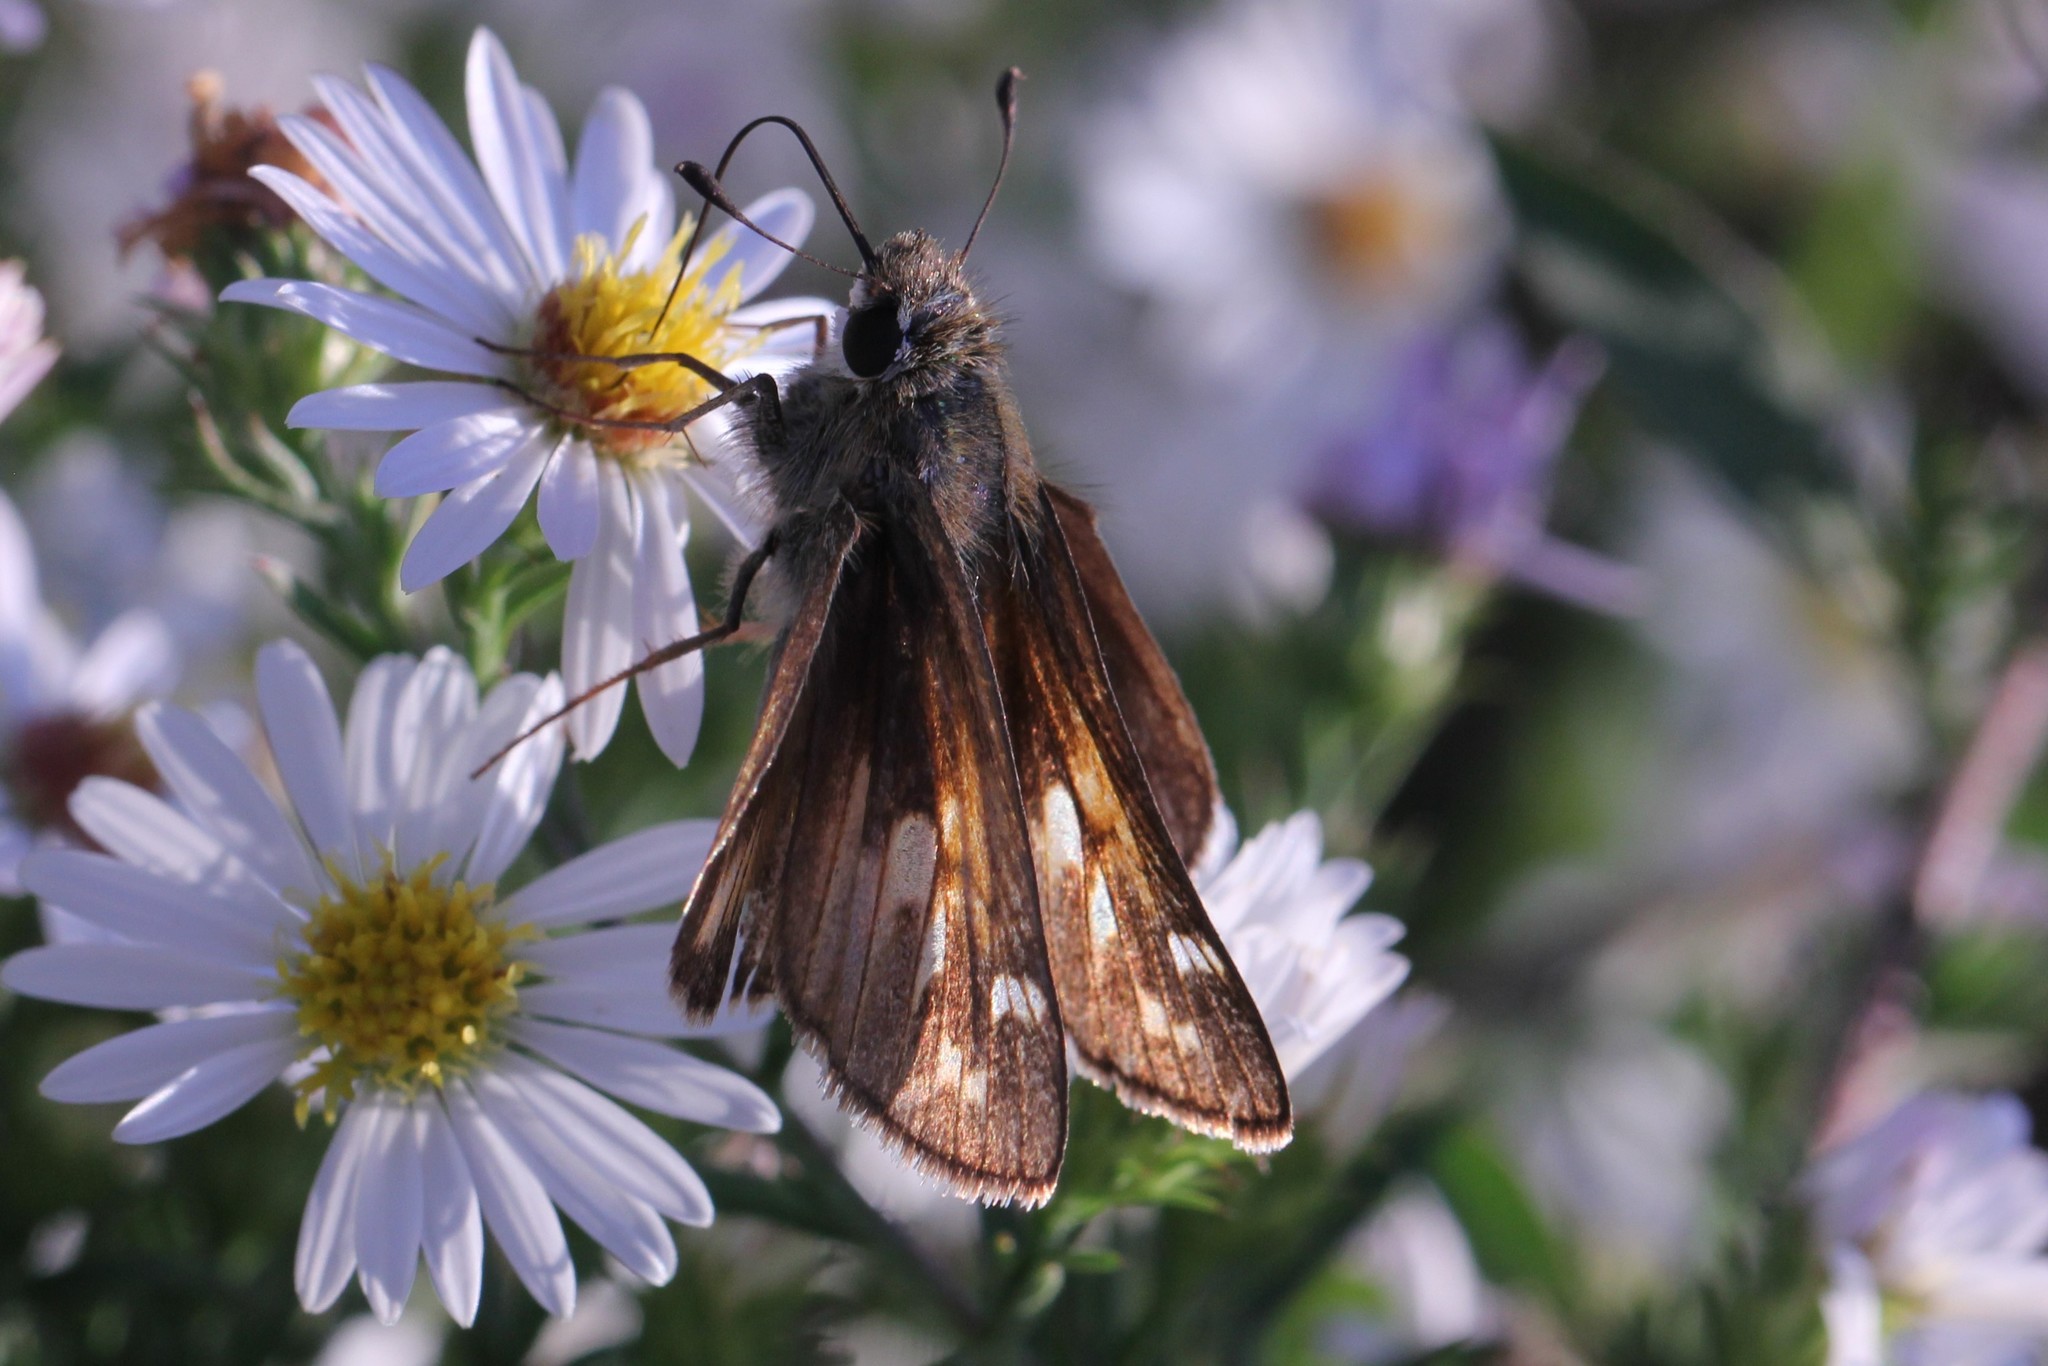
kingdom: Animalia
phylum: Arthropoda
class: Insecta
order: Lepidoptera
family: Hesperiidae
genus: Atalopedes
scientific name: Atalopedes
